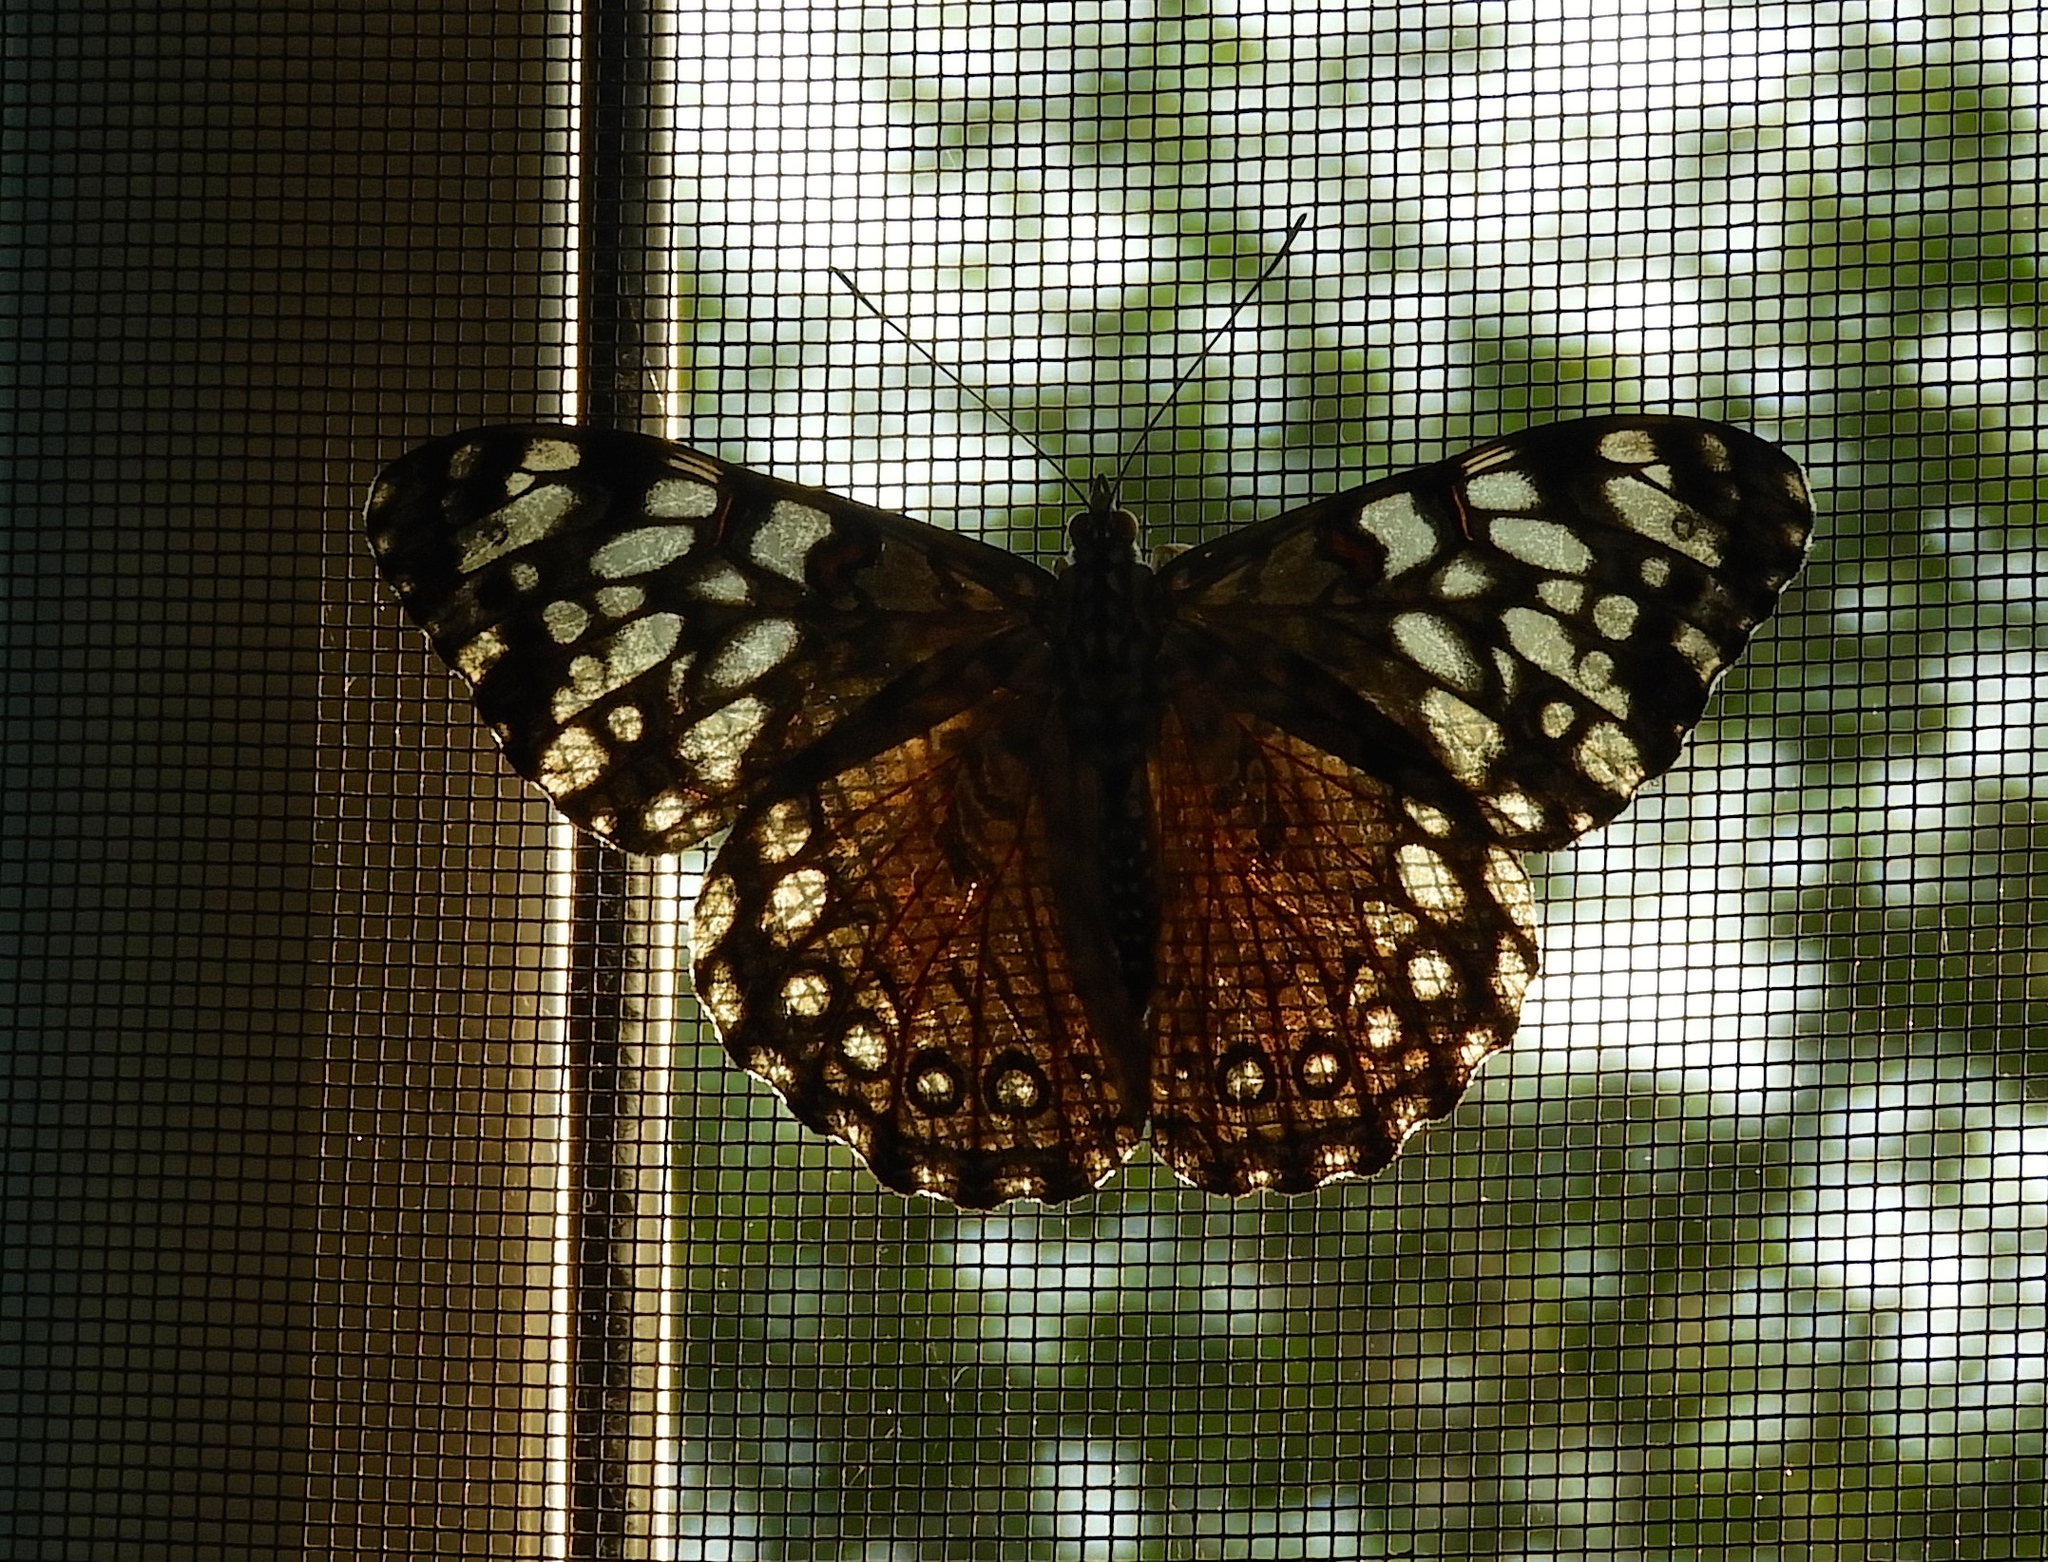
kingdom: Animalia
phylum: Arthropoda
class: Insecta
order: Lepidoptera
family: Nymphalidae
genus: Hamadryas
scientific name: Hamadryas guatemalena
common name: Guatemalan cracker
